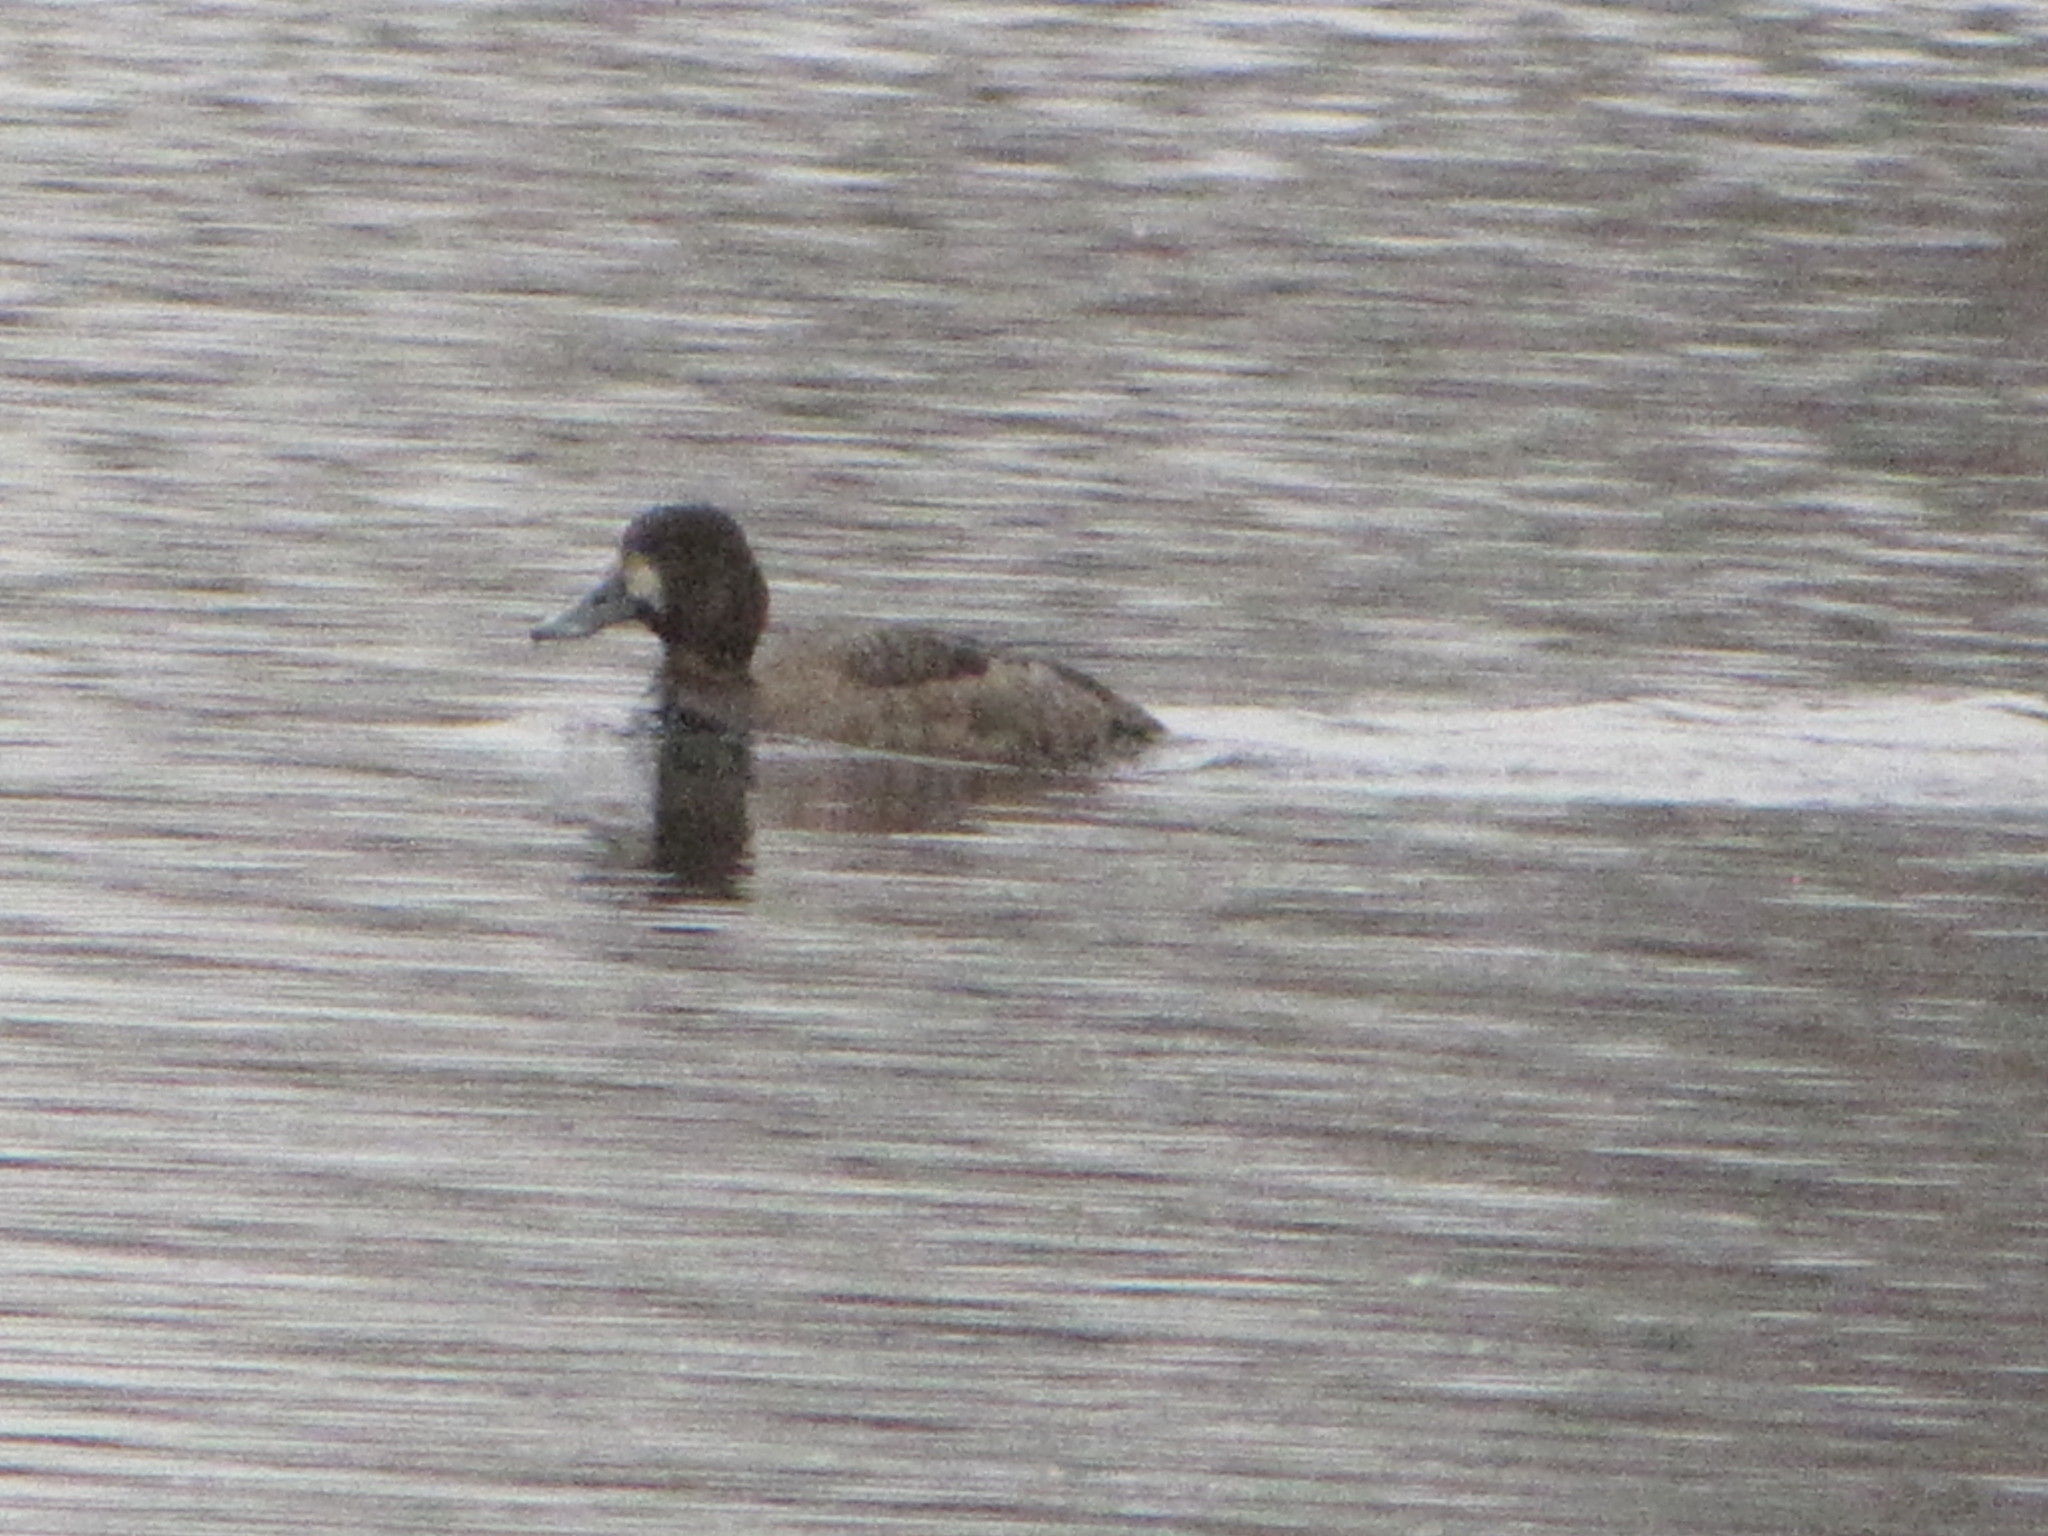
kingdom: Animalia
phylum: Chordata
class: Aves
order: Anseriformes
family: Anatidae
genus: Aythya
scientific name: Aythya affinis
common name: Lesser scaup
